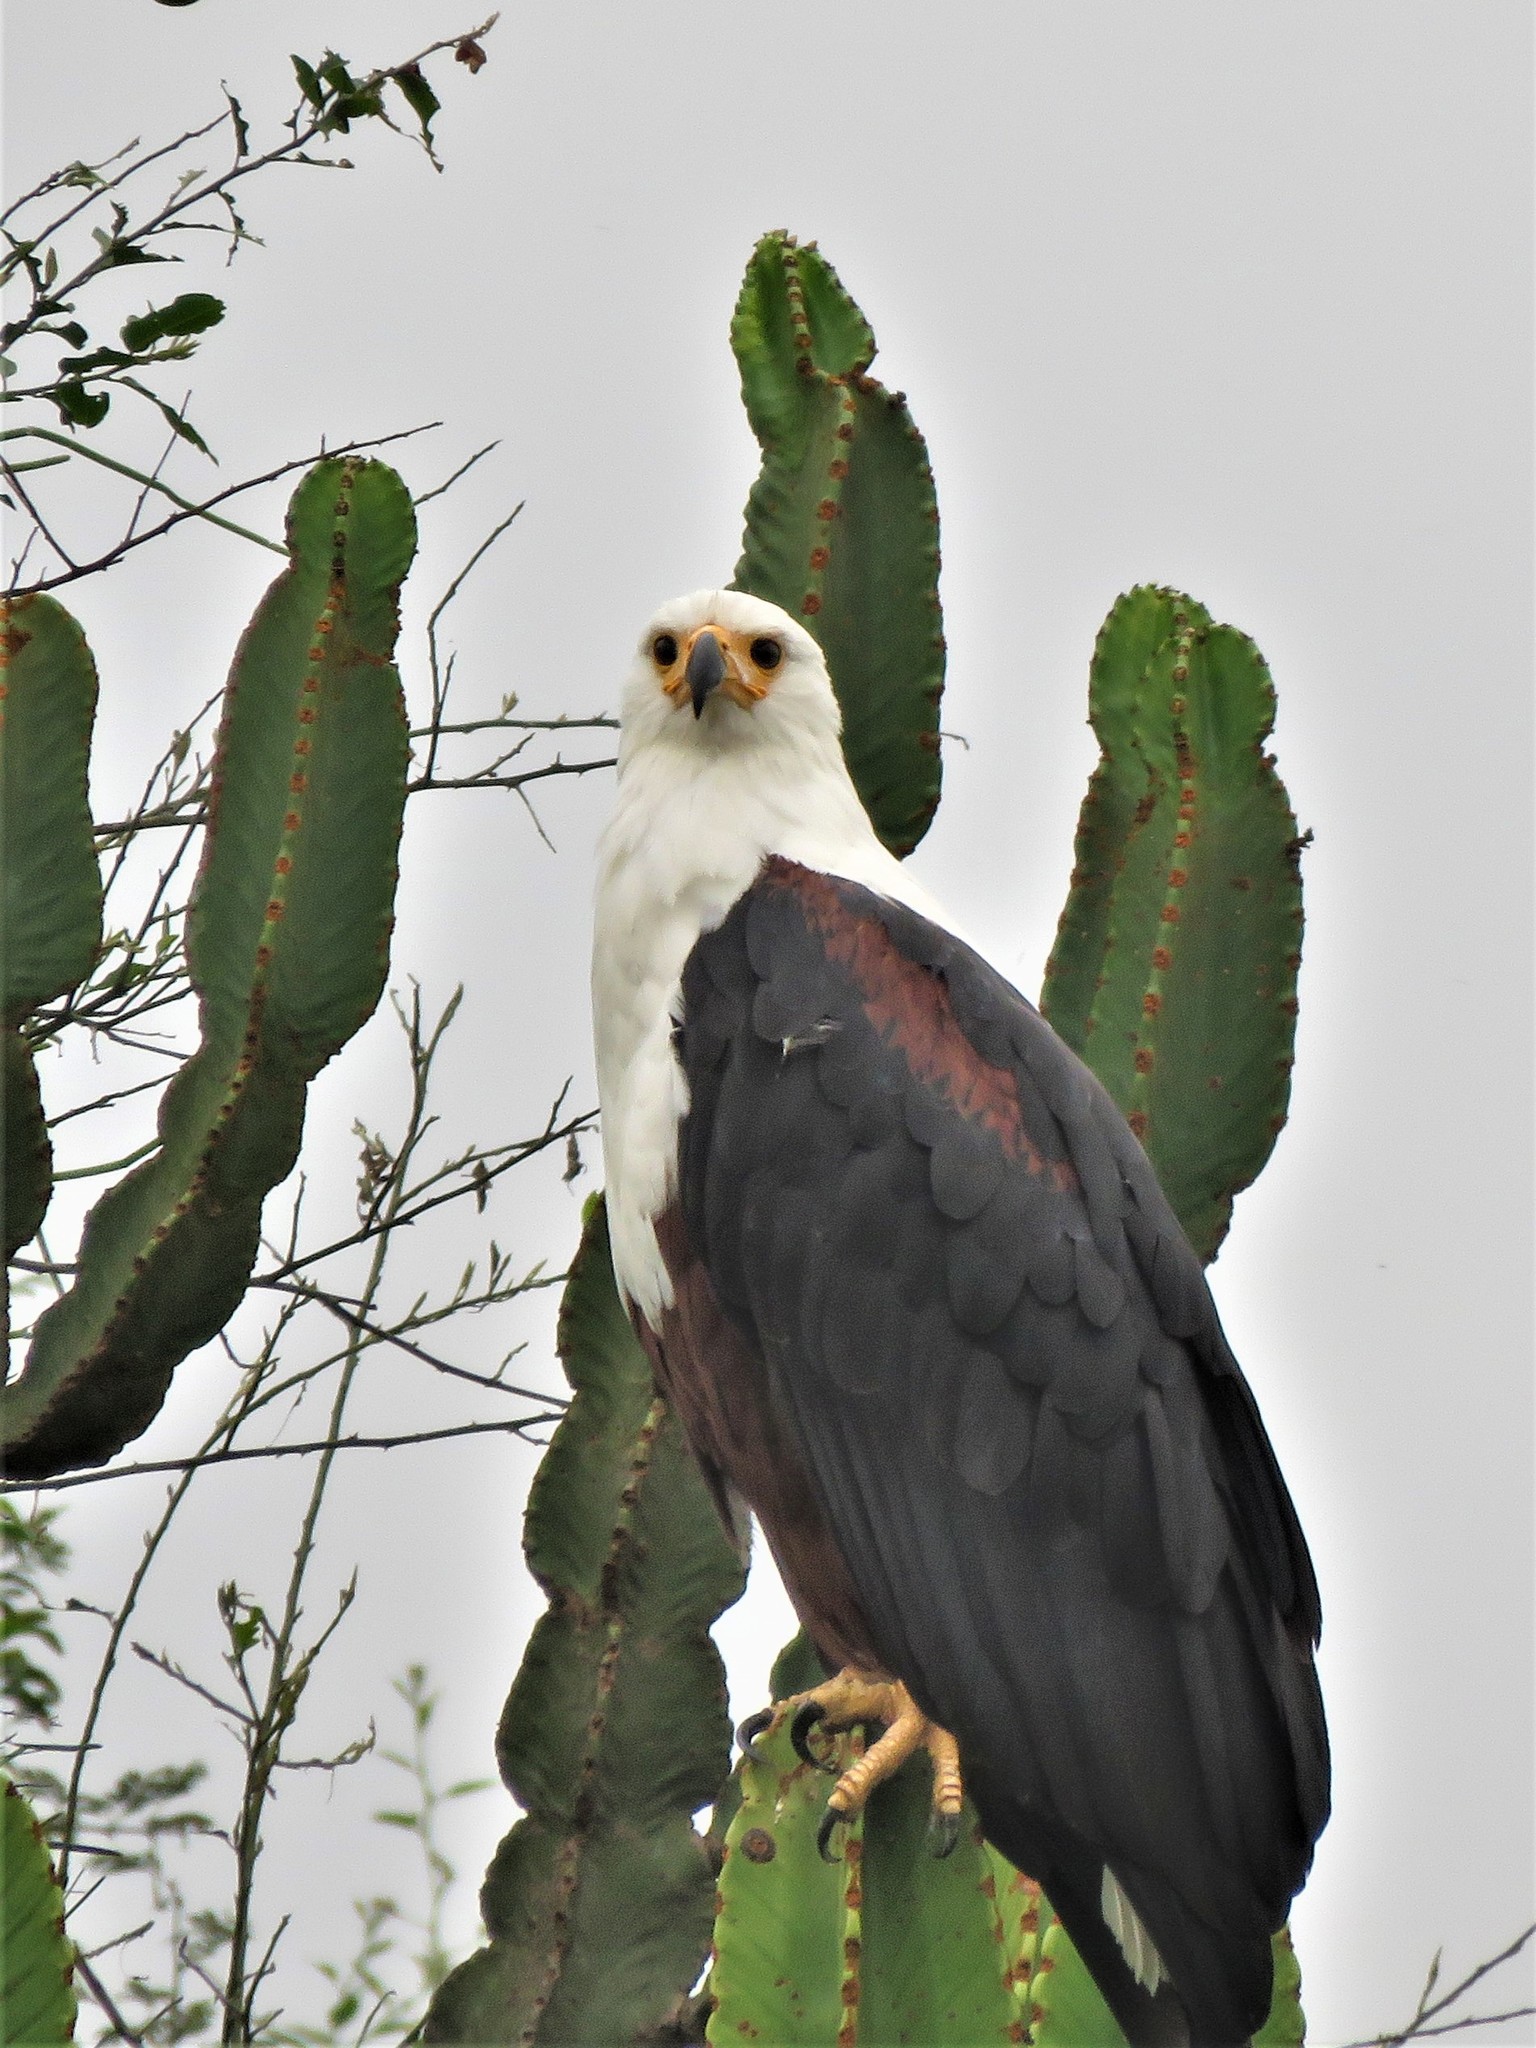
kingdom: Animalia
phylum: Chordata
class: Aves
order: Accipitriformes
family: Accipitridae
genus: Haliaeetus
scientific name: Haliaeetus vocifer
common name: African fish eagle
